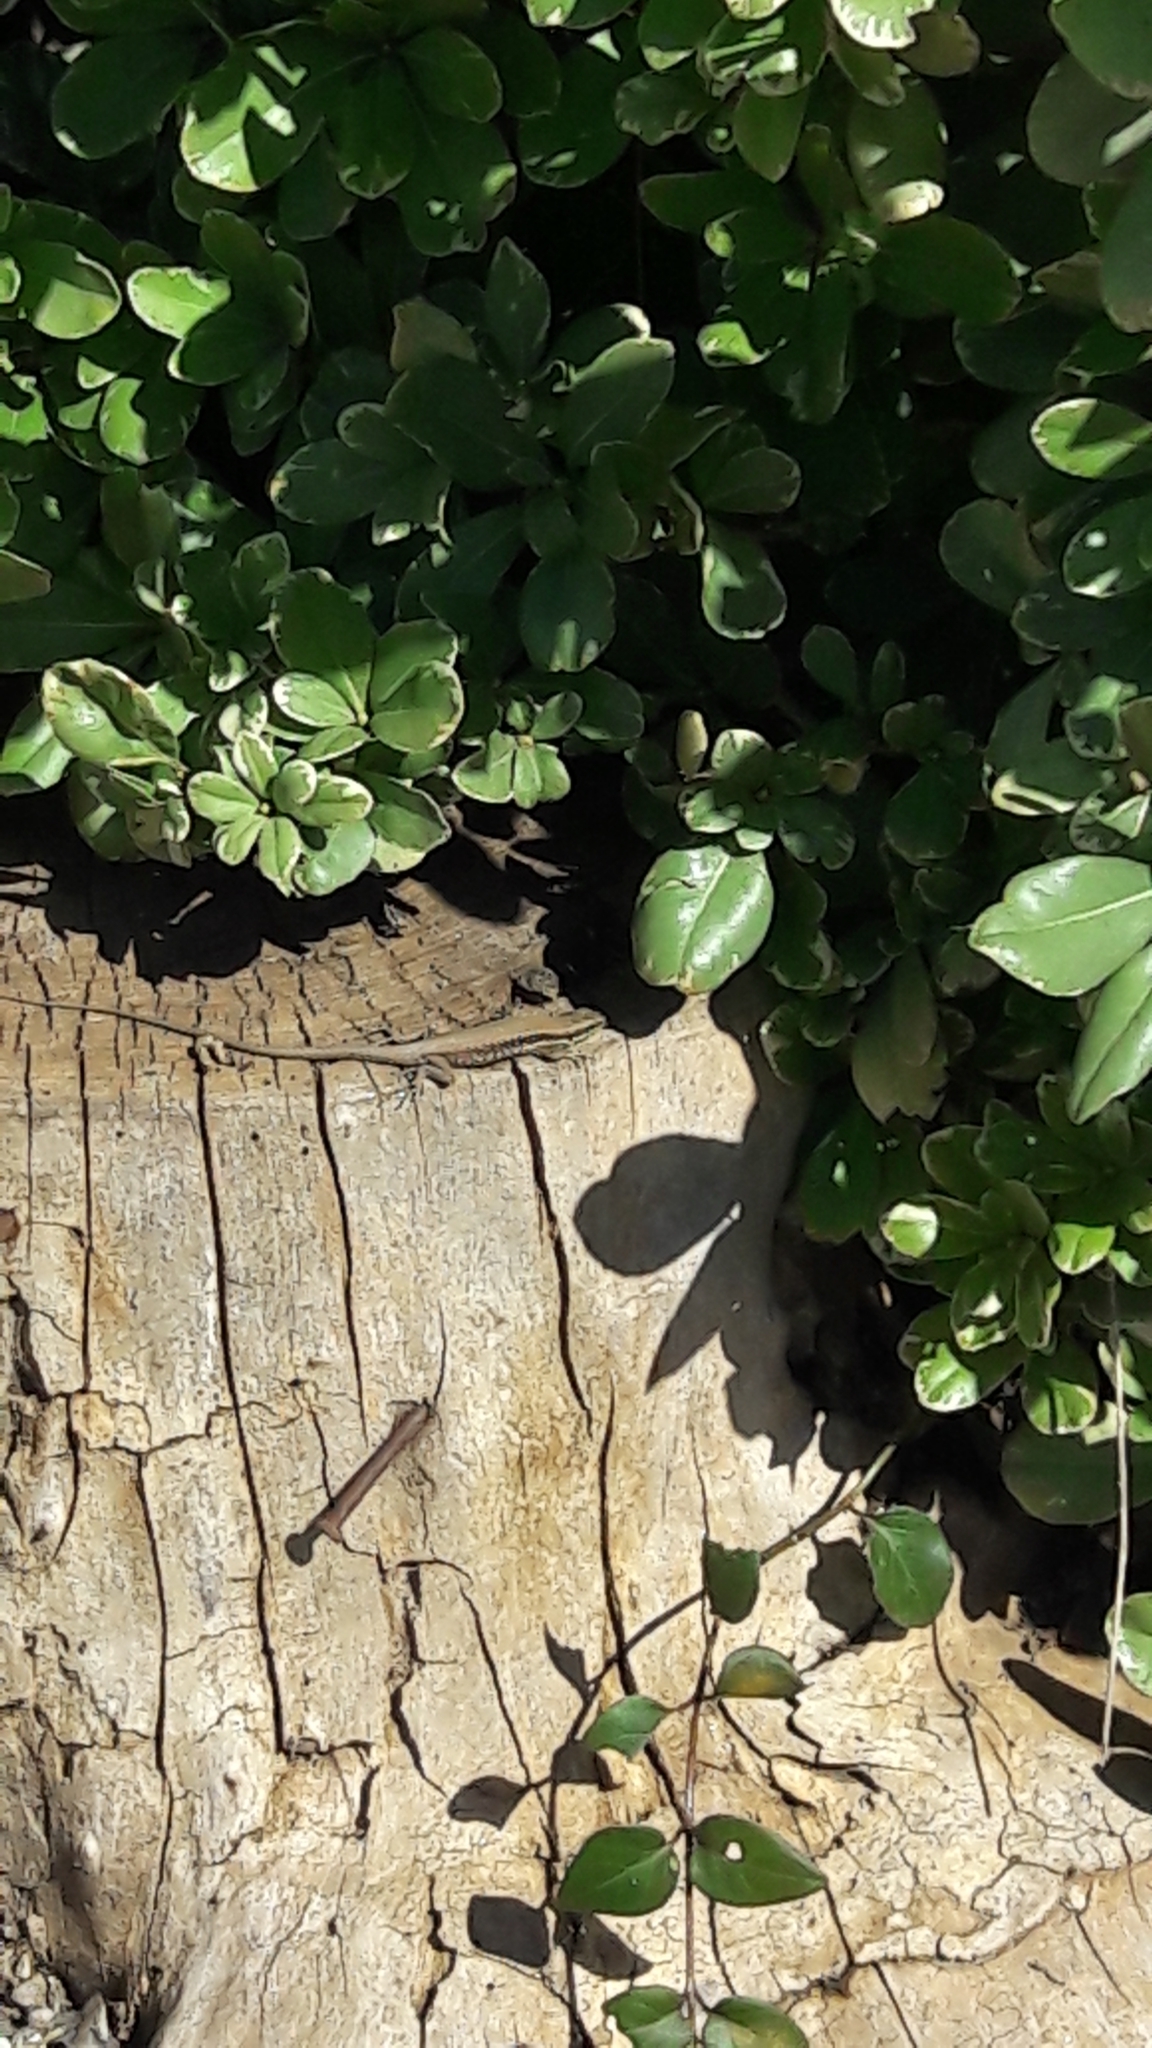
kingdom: Animalia
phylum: Chordata
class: Squamata
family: Lacertidae
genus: Phoenicolacerta
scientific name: Phoenicolacerta laevis
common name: Lebanon lizard
